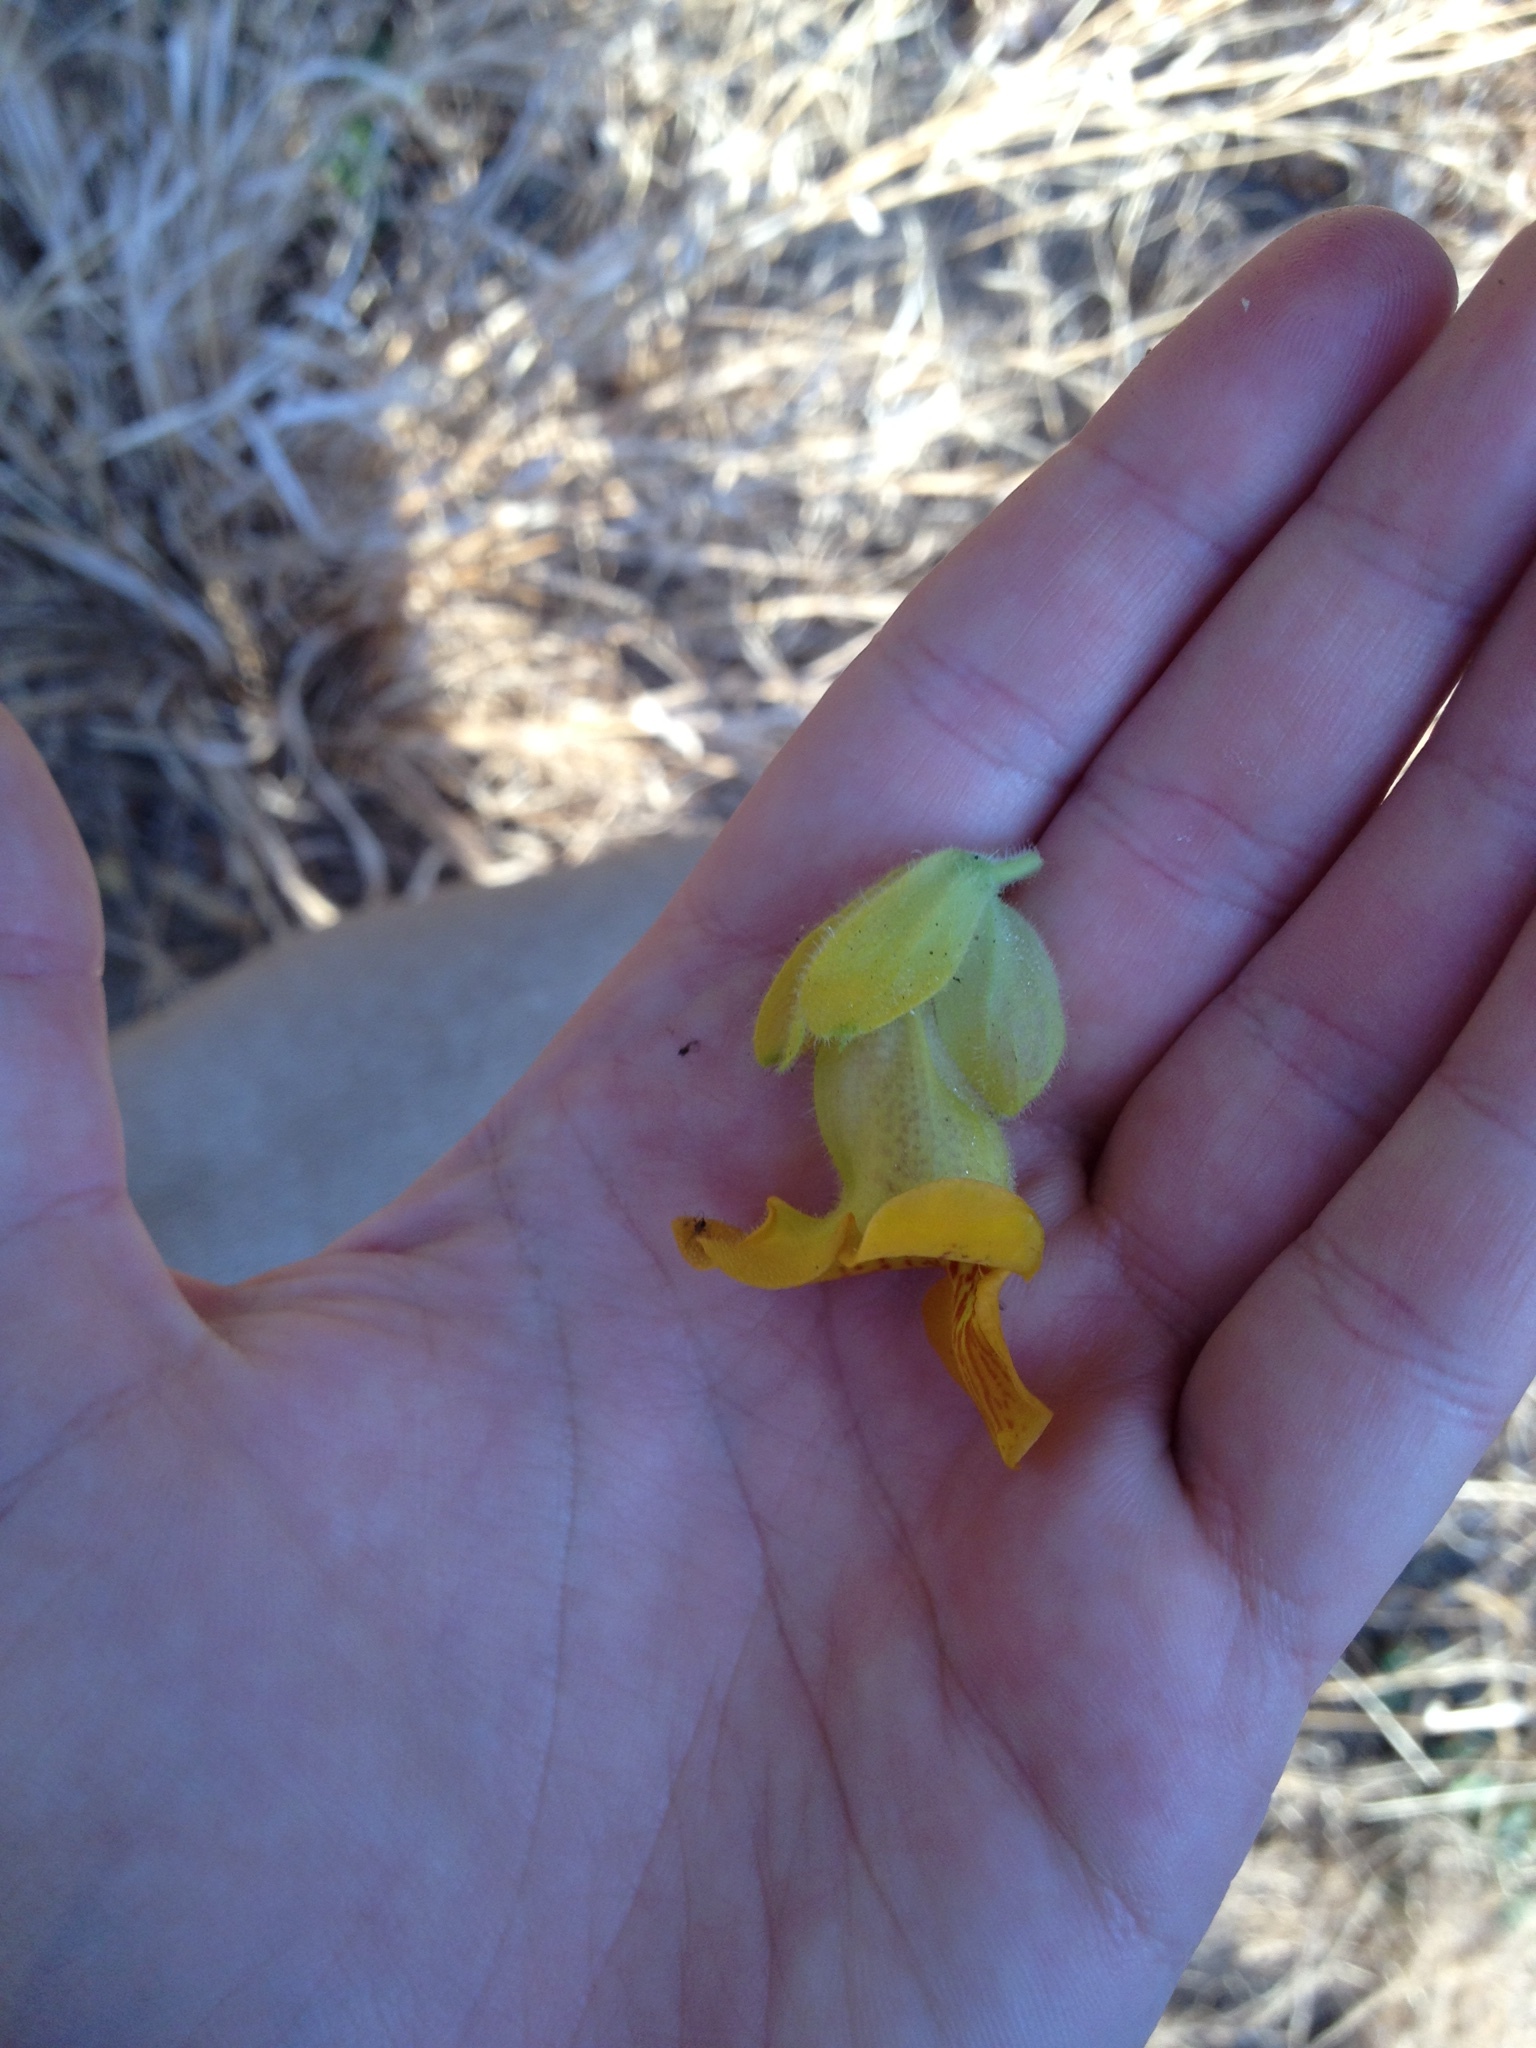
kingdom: Plantae
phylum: Tracheophyta
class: Magnoliopsida
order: Lamiales
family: Martyniaceae
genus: Ibicella
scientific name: Ibicella lutea
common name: Yellow unicorn-plant
